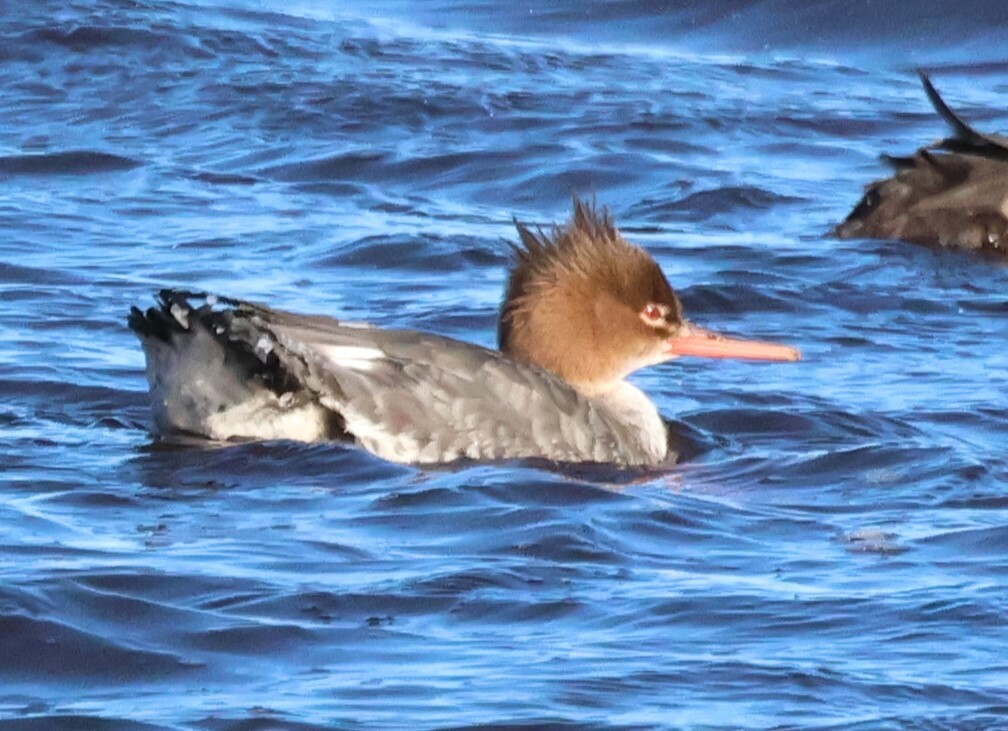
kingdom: Animalia
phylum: Chordata
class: Aves
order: Anseriformes
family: Anatidae
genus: Mergus
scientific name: Mergus serrator
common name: Red-breasted merganser
